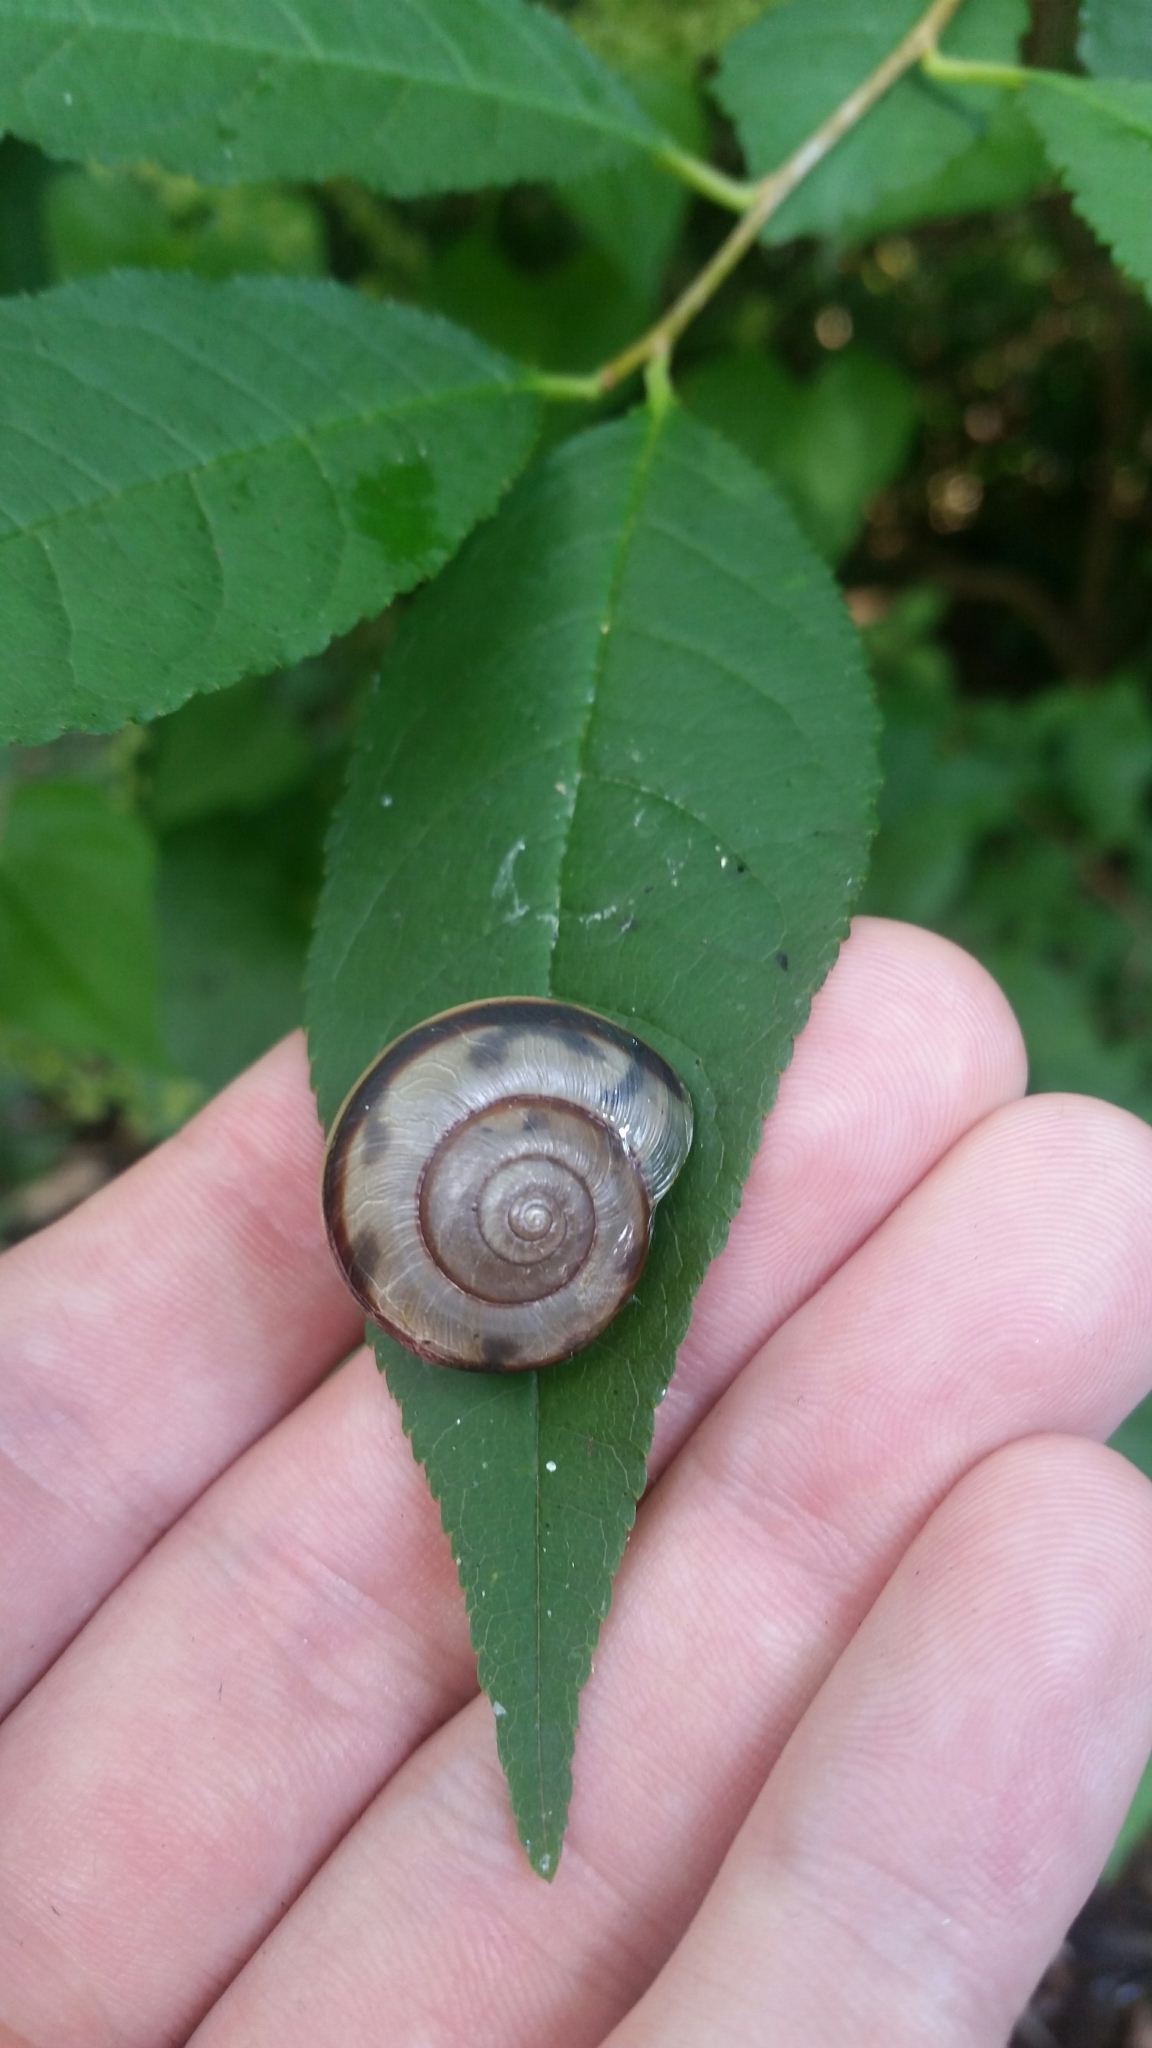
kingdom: Animalia
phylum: Mollusca
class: Gastropoda
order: Stylommatophora
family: Camaenidae
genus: Euhadra
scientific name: Euhadra peliomphala
